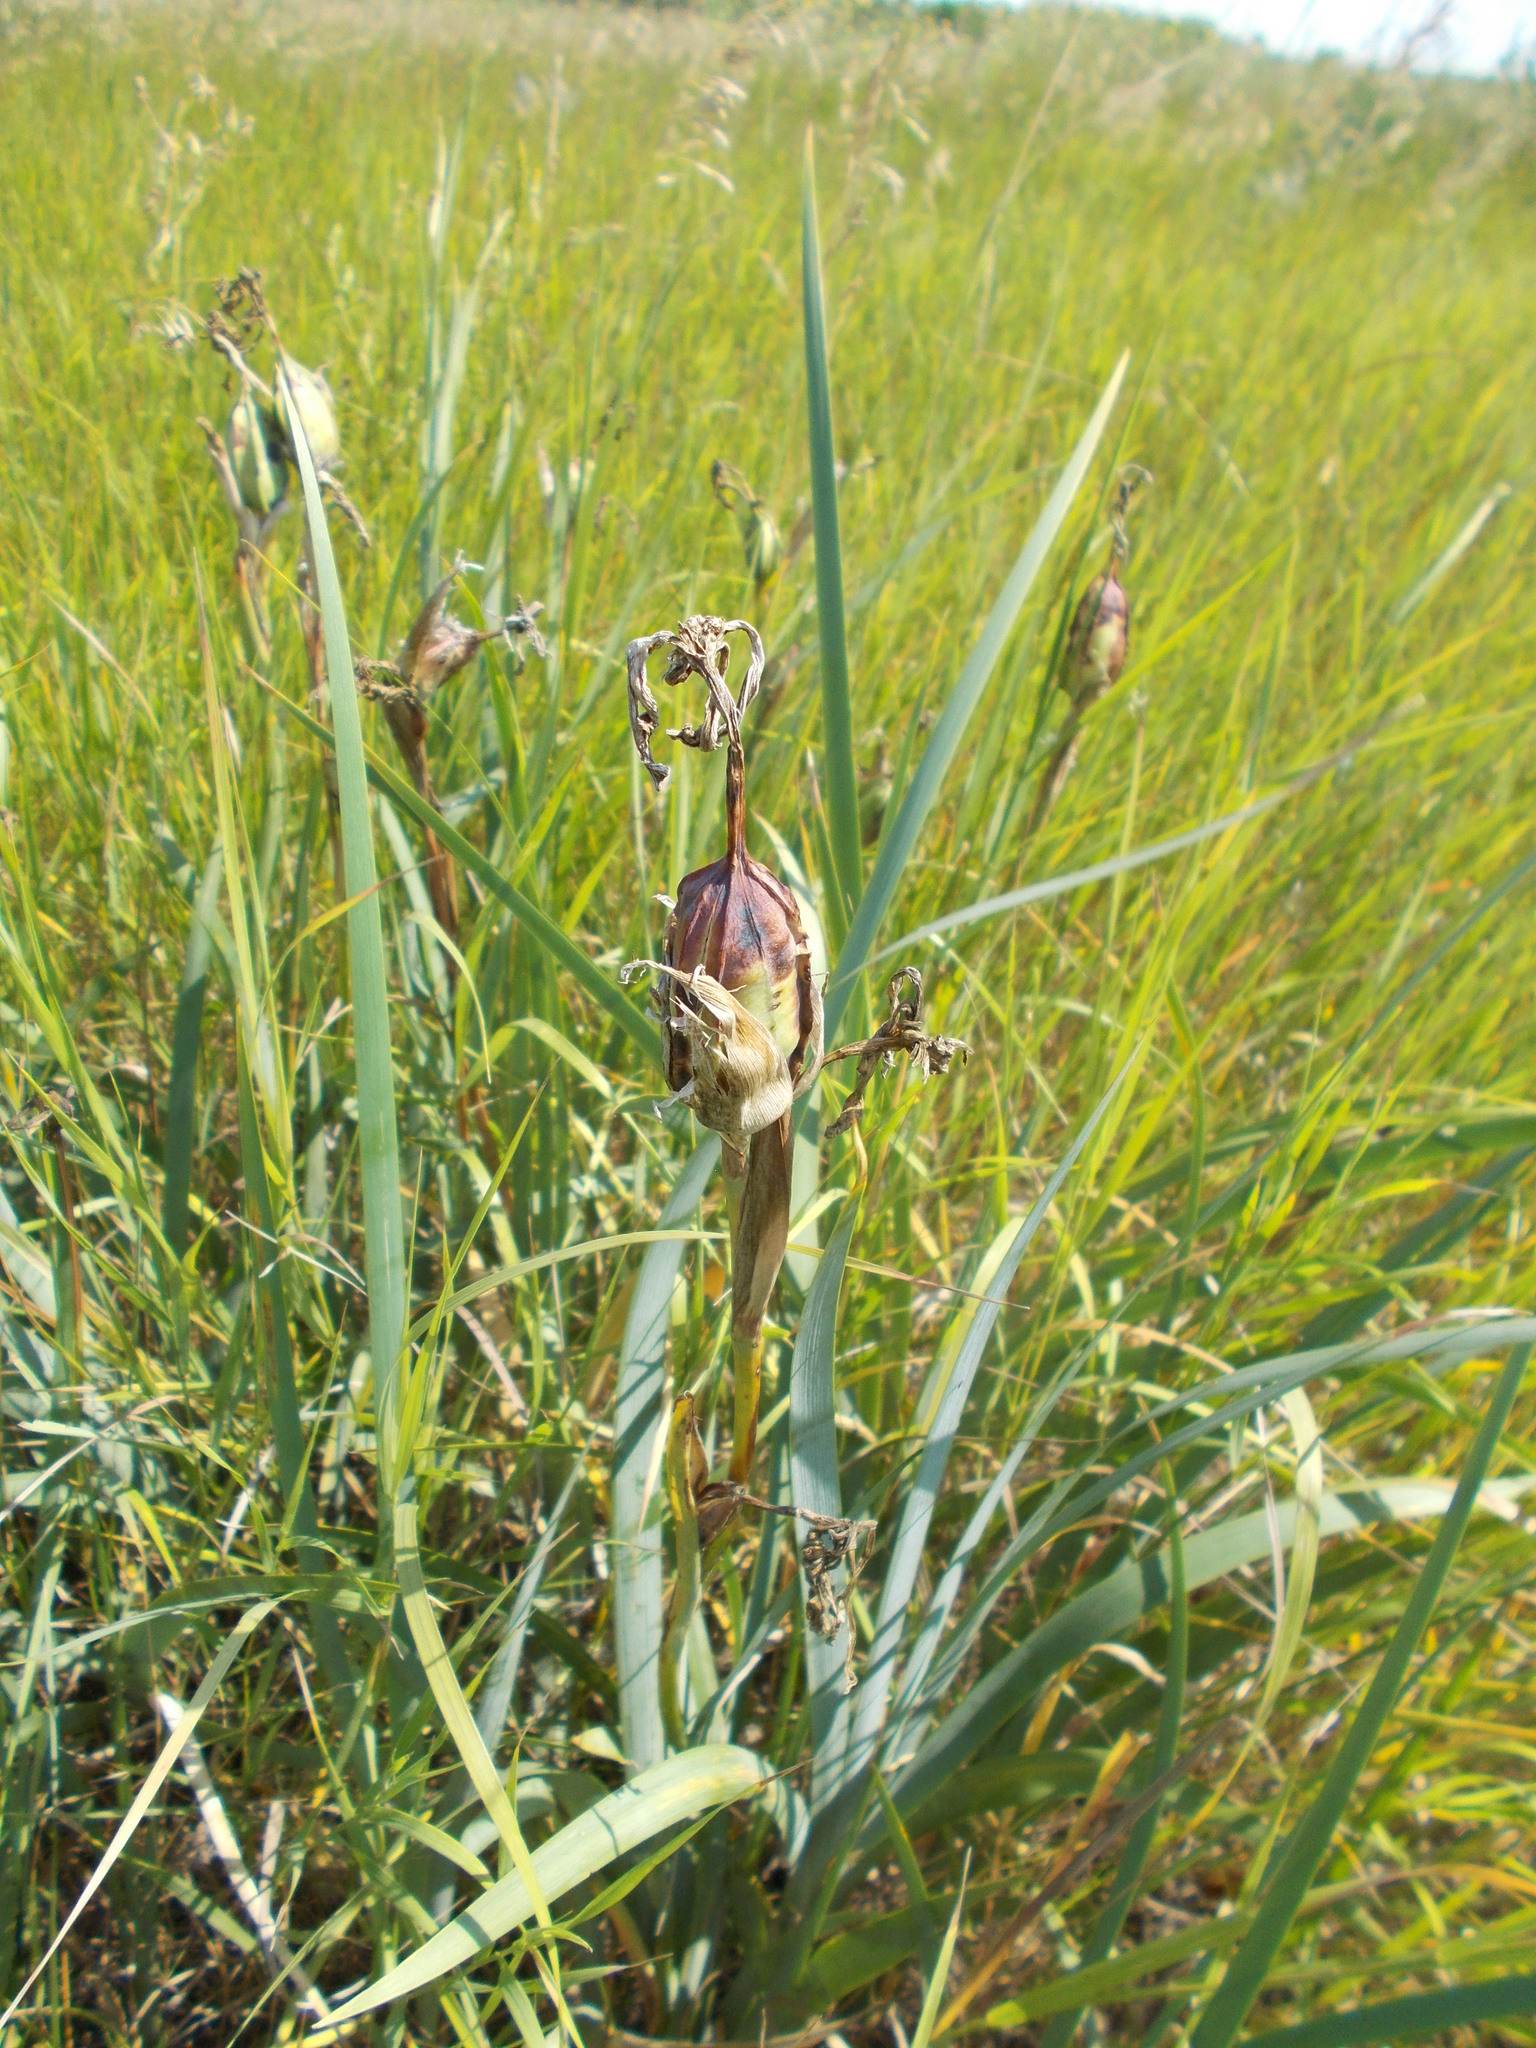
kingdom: Plantae
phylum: Tracheophyta
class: Liliopsida
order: Asparagales
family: Iridaceae
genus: Iris
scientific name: Iris halophila
